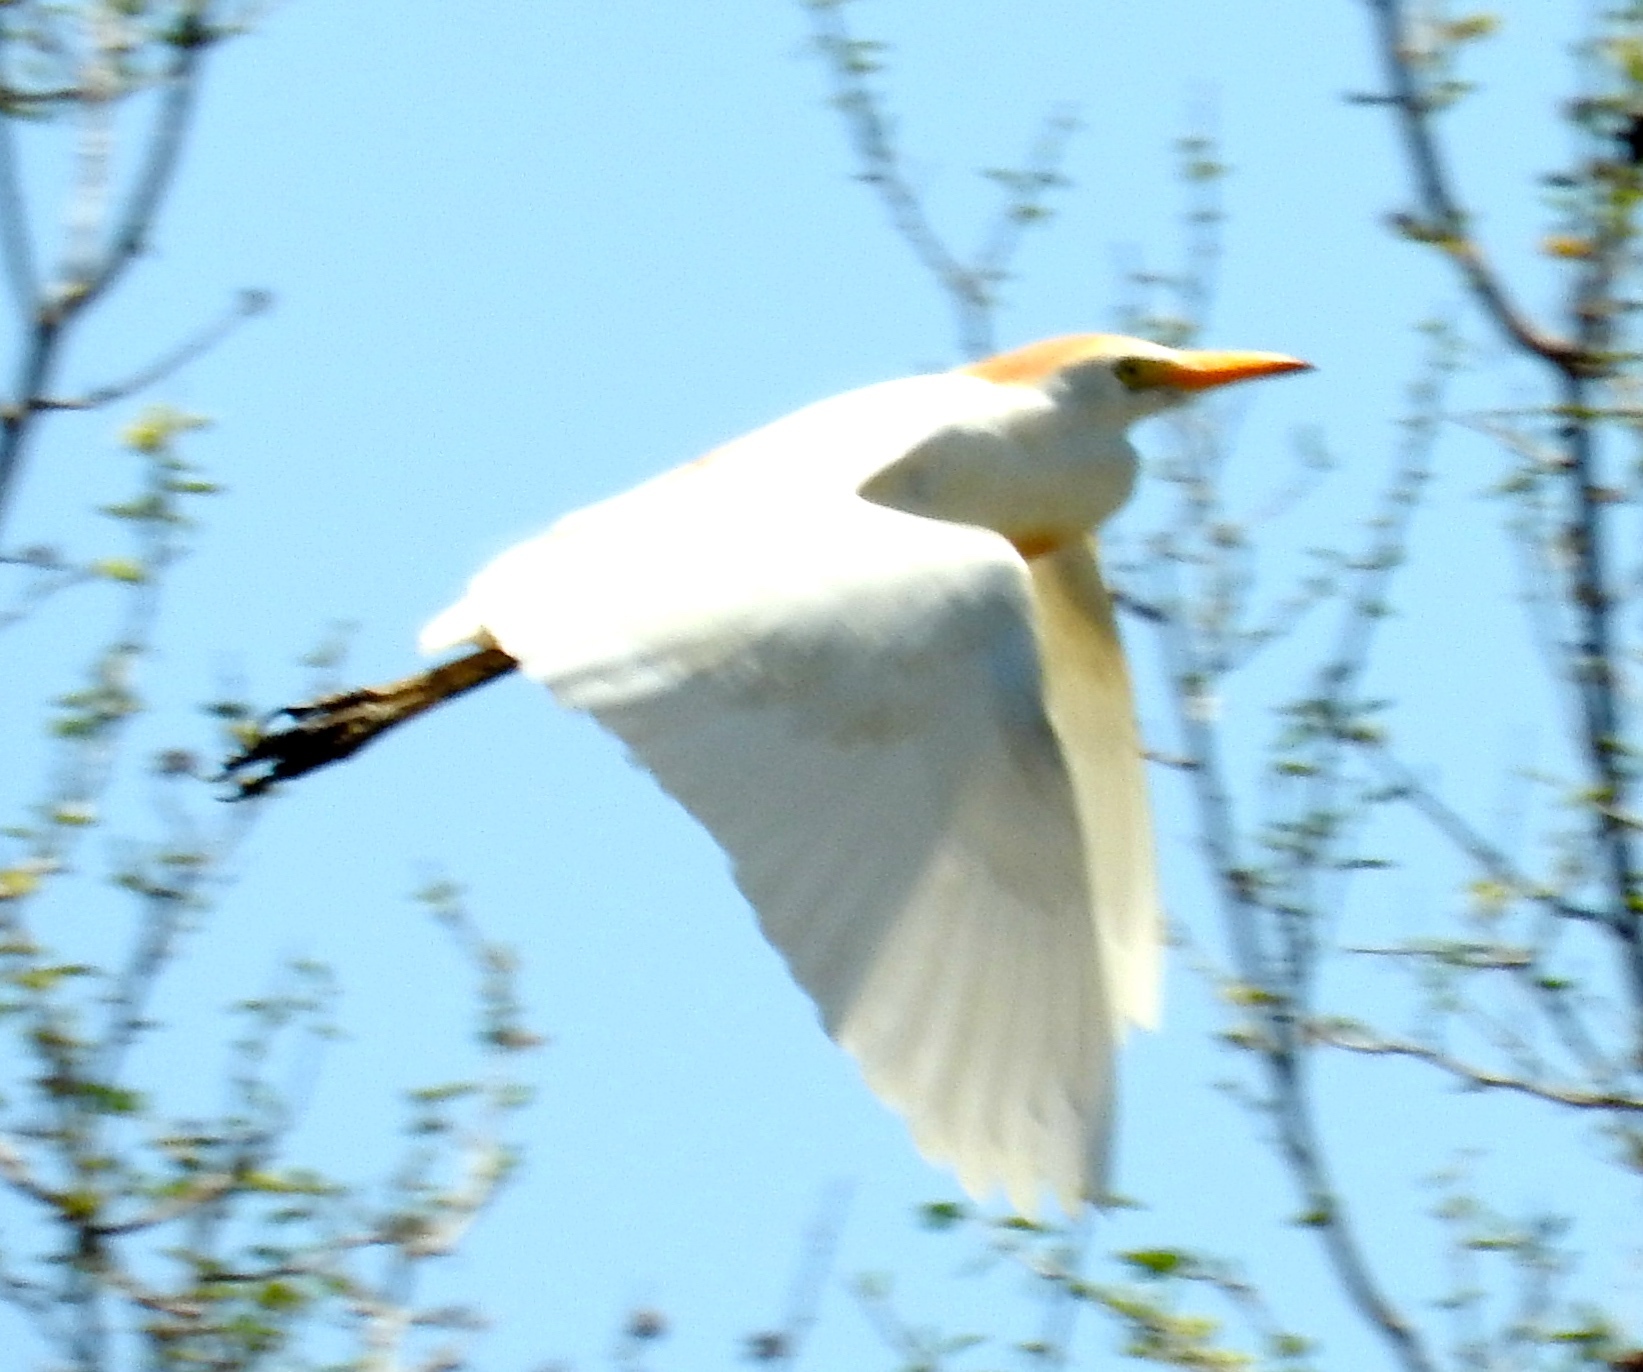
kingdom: Animalia
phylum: Chordata
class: Aves
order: Pelecaniformes
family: Ardeidae
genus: Bubulcus
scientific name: Bubulcus ibis
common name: Cattle egret
